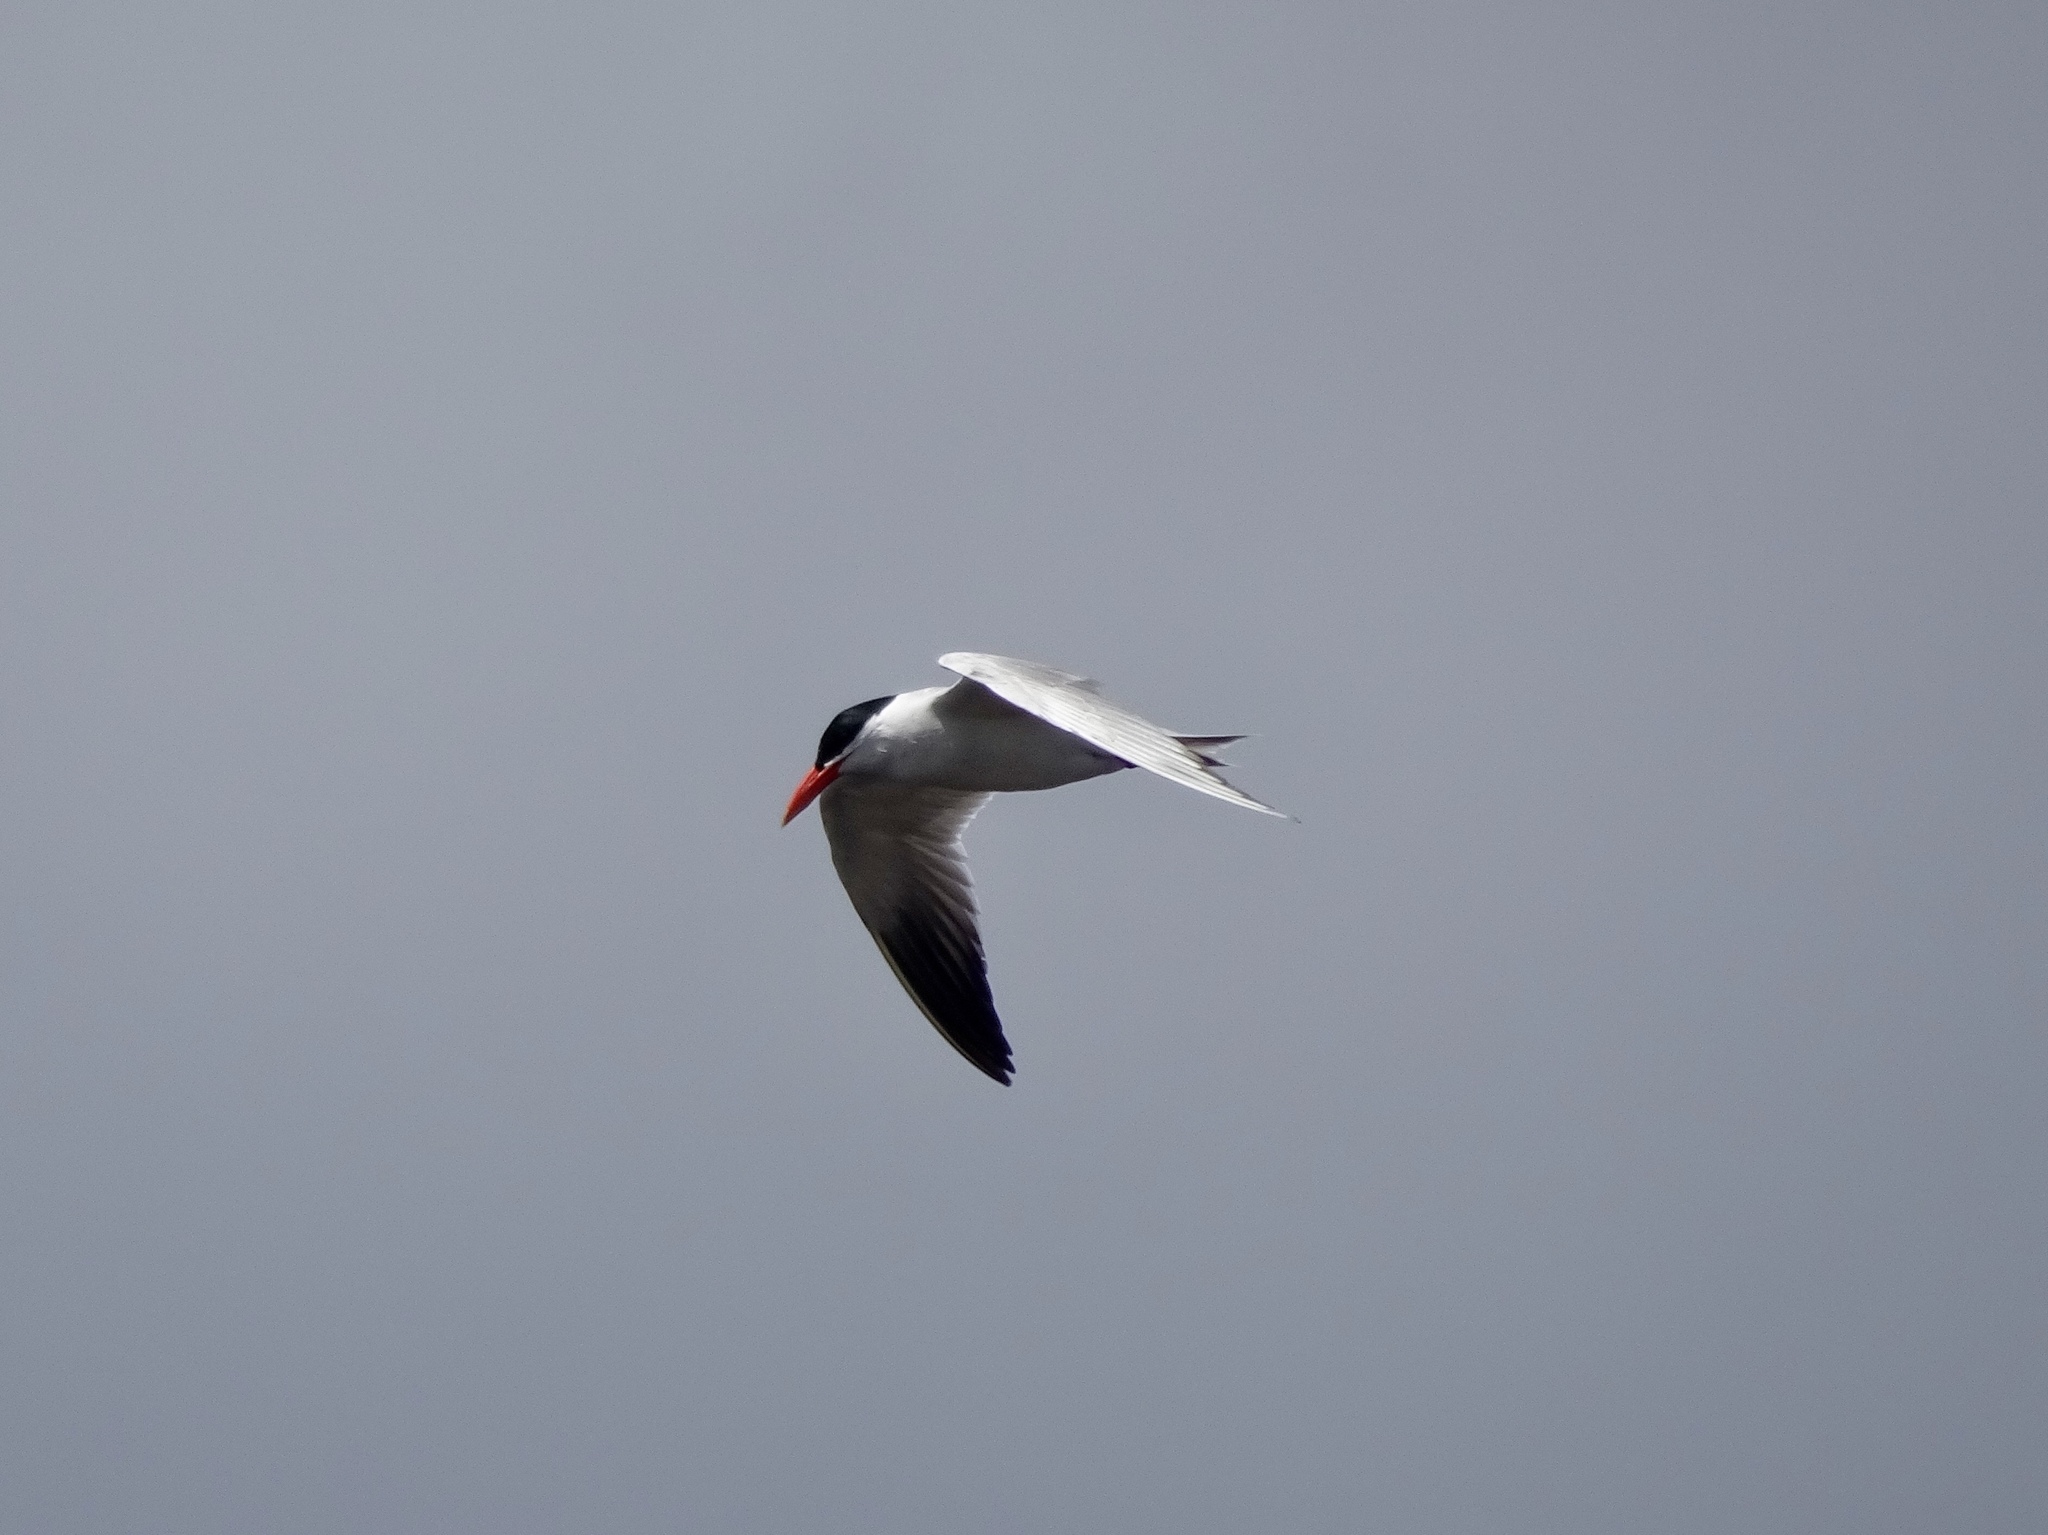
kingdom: Animalia
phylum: Chordata
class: Aves
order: Charadriiformes
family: Laridae
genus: Hydroprogne
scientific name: Hydroprogne caspia
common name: Caspian tern
